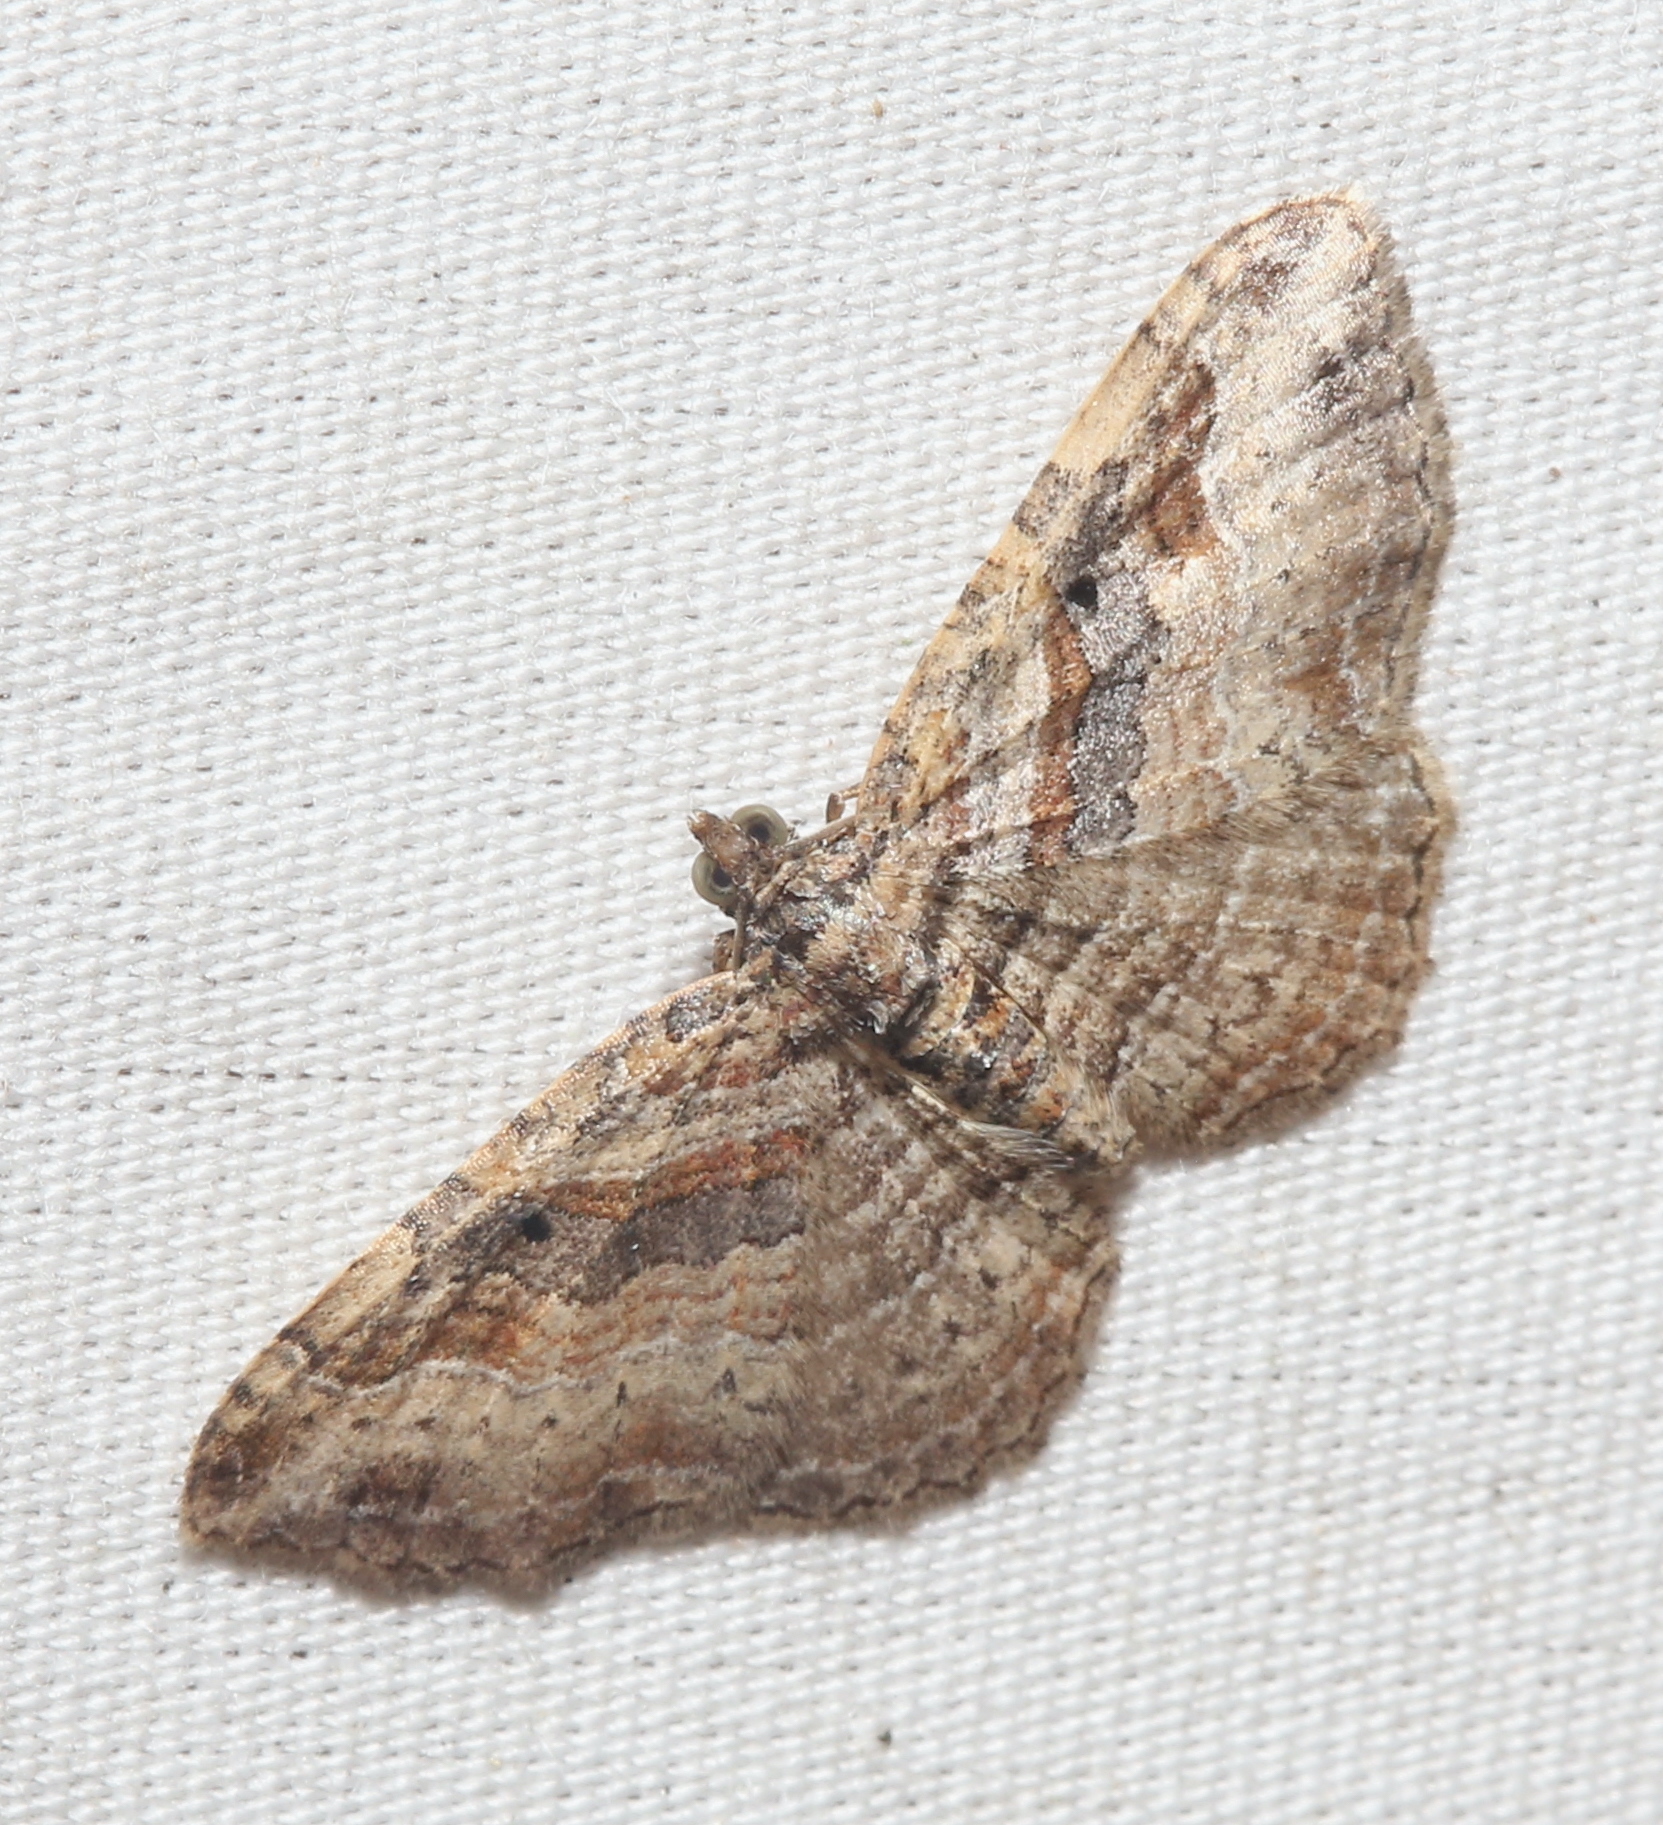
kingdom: Animalia
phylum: Arthropoda
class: Insecta
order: Lepidoptera
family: Geometridae
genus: Costaconvexa
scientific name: Costaconvexa centrostrigaria
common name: Bent-line carpet
